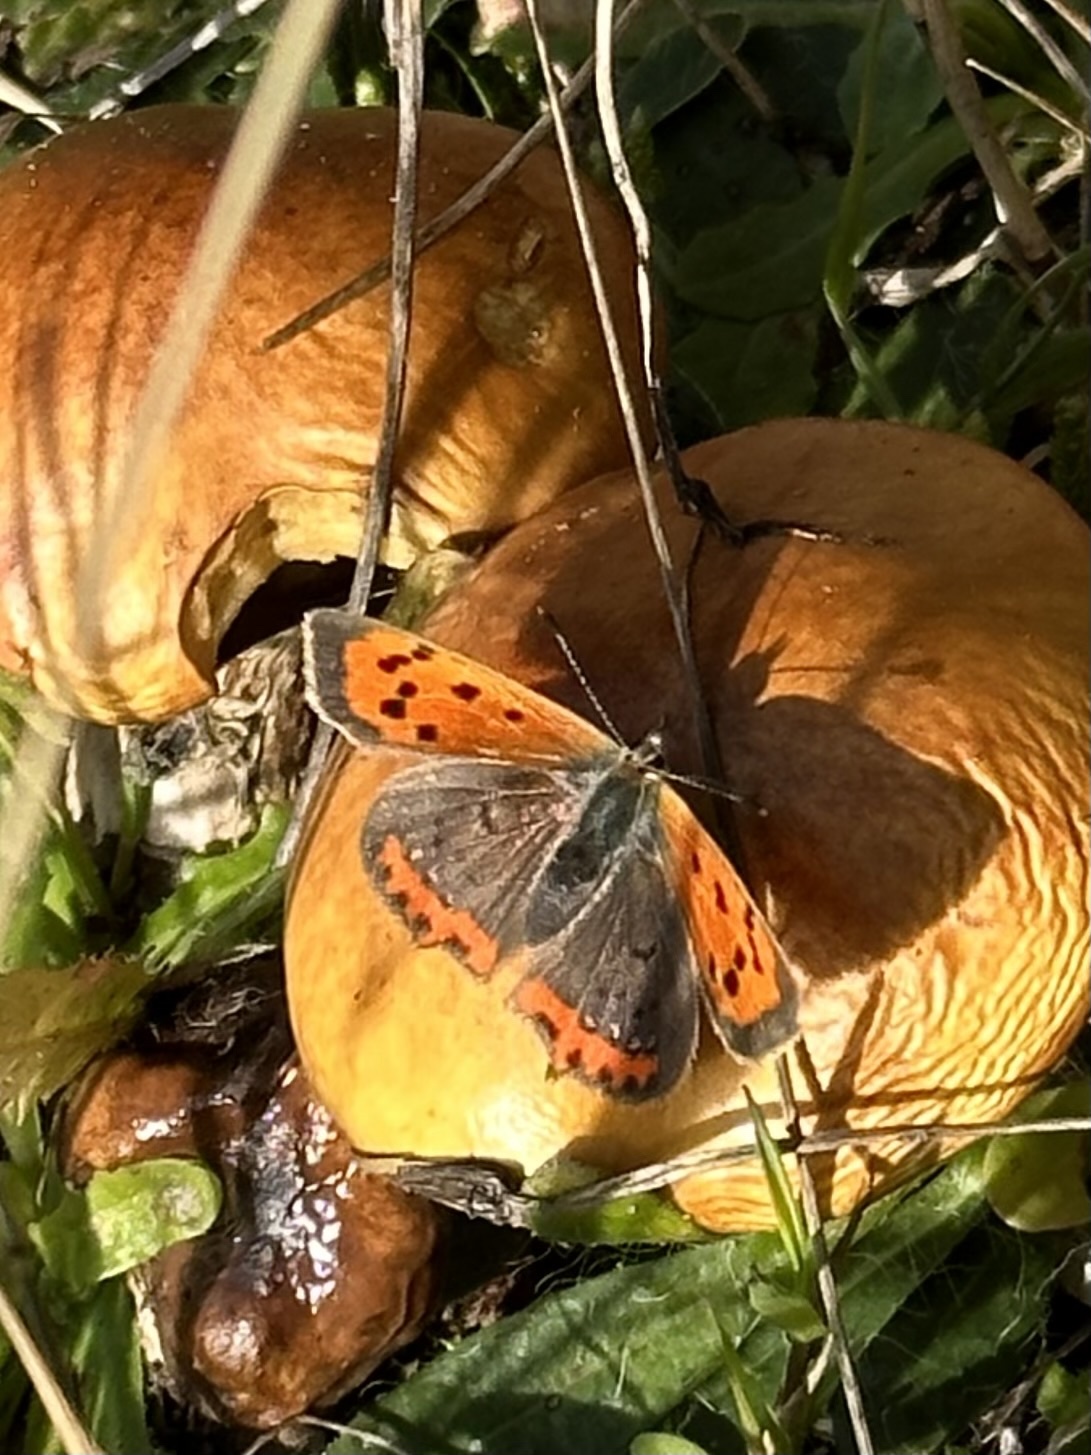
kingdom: Animalia
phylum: Arthropoda
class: Insecta
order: Lepidoptera
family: Lycaenidae
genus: Lycaena
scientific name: Lycaena phlaeas
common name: Small copper
